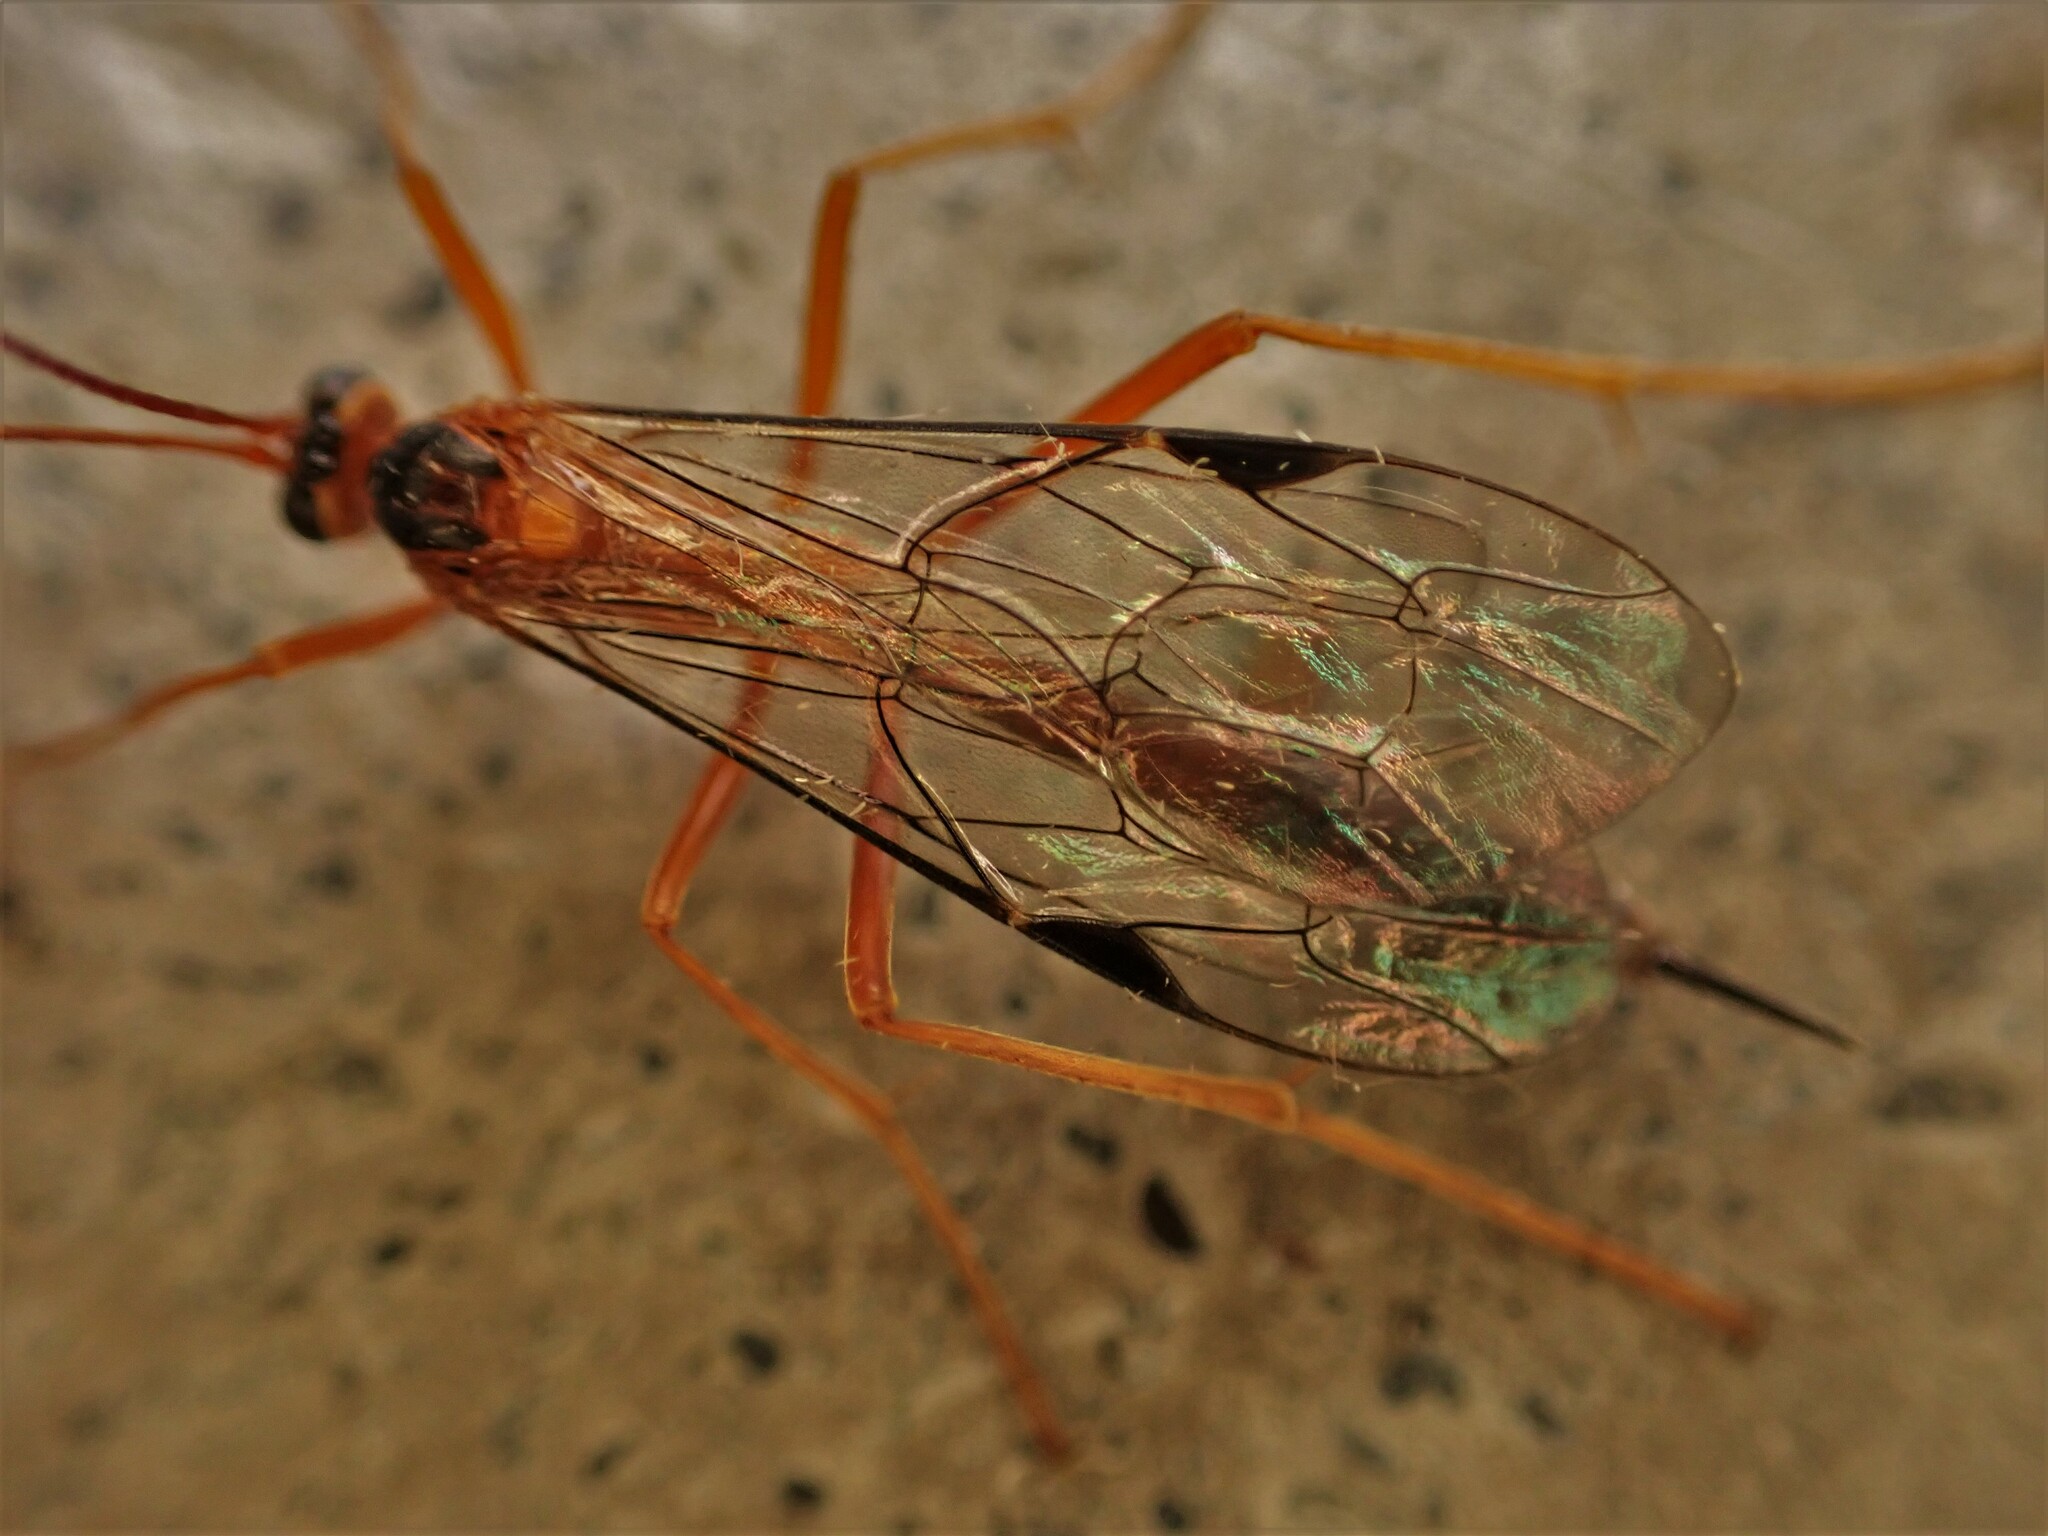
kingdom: Animalia
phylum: Arthropoda
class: Insecta
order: Hymenoptera
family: Ichneumonidae
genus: Netelia
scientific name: Netelia ephippiata
